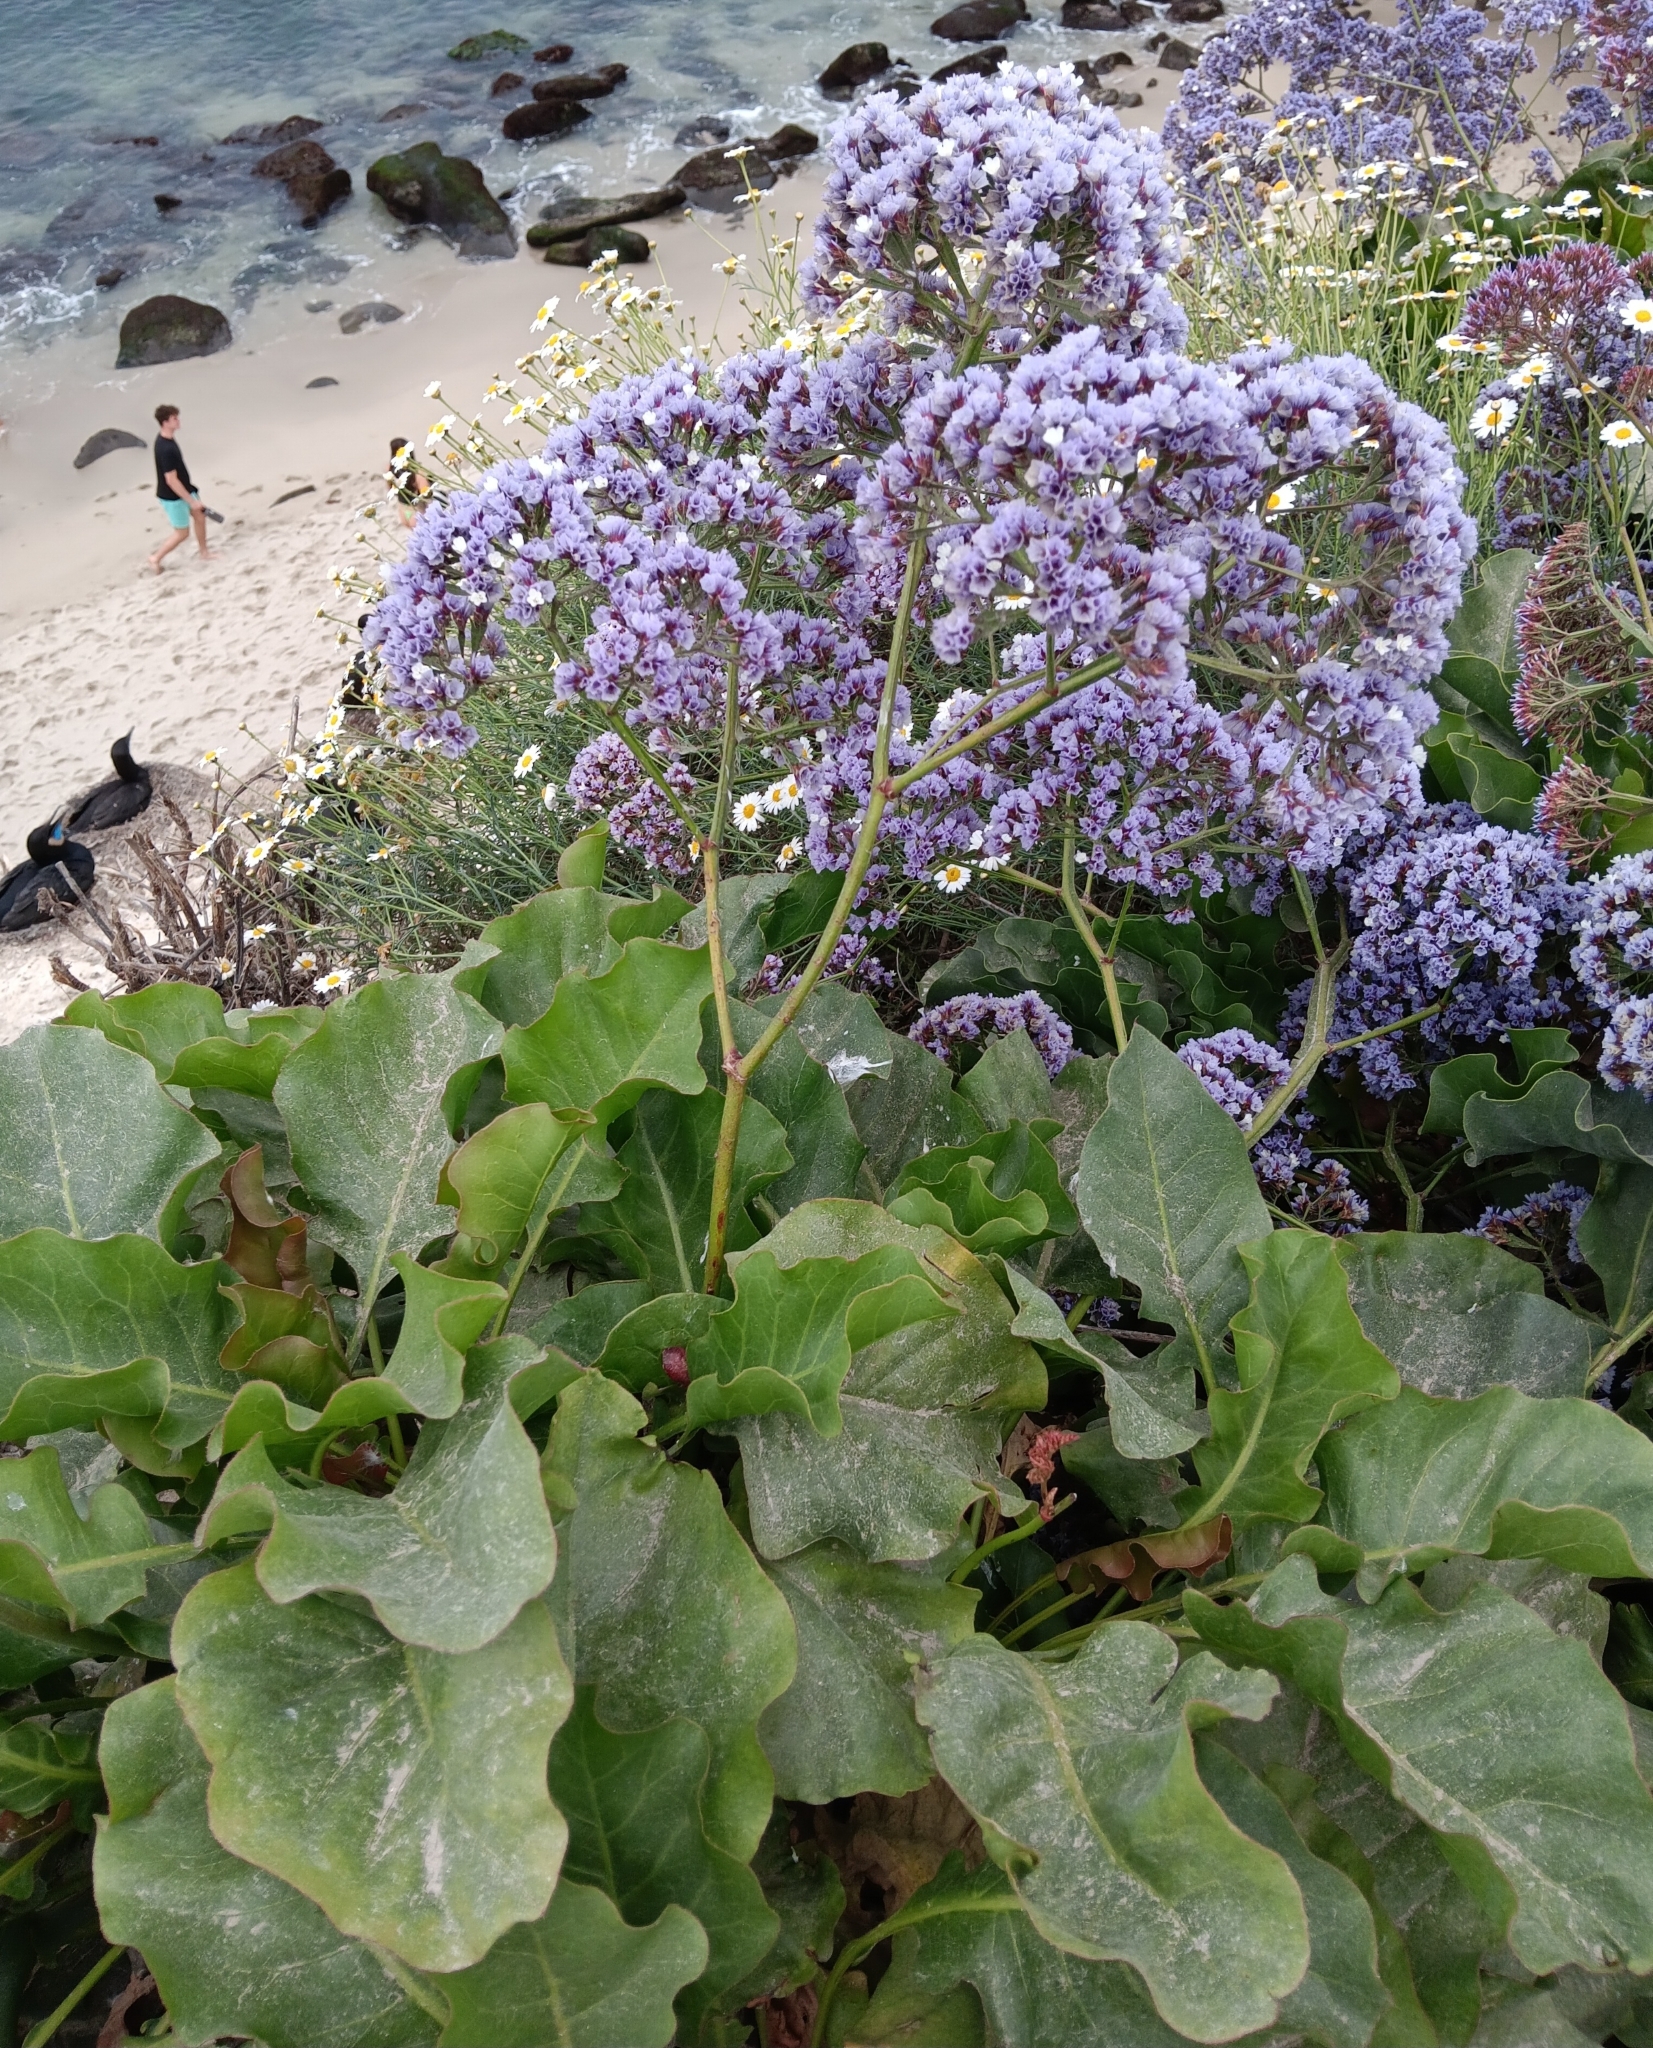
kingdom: Plantae
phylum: Tracheophyta
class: Magnoliopsida
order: Caryophyllales
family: Plumbaginaceae
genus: Limonium
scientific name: Limonium perezii
